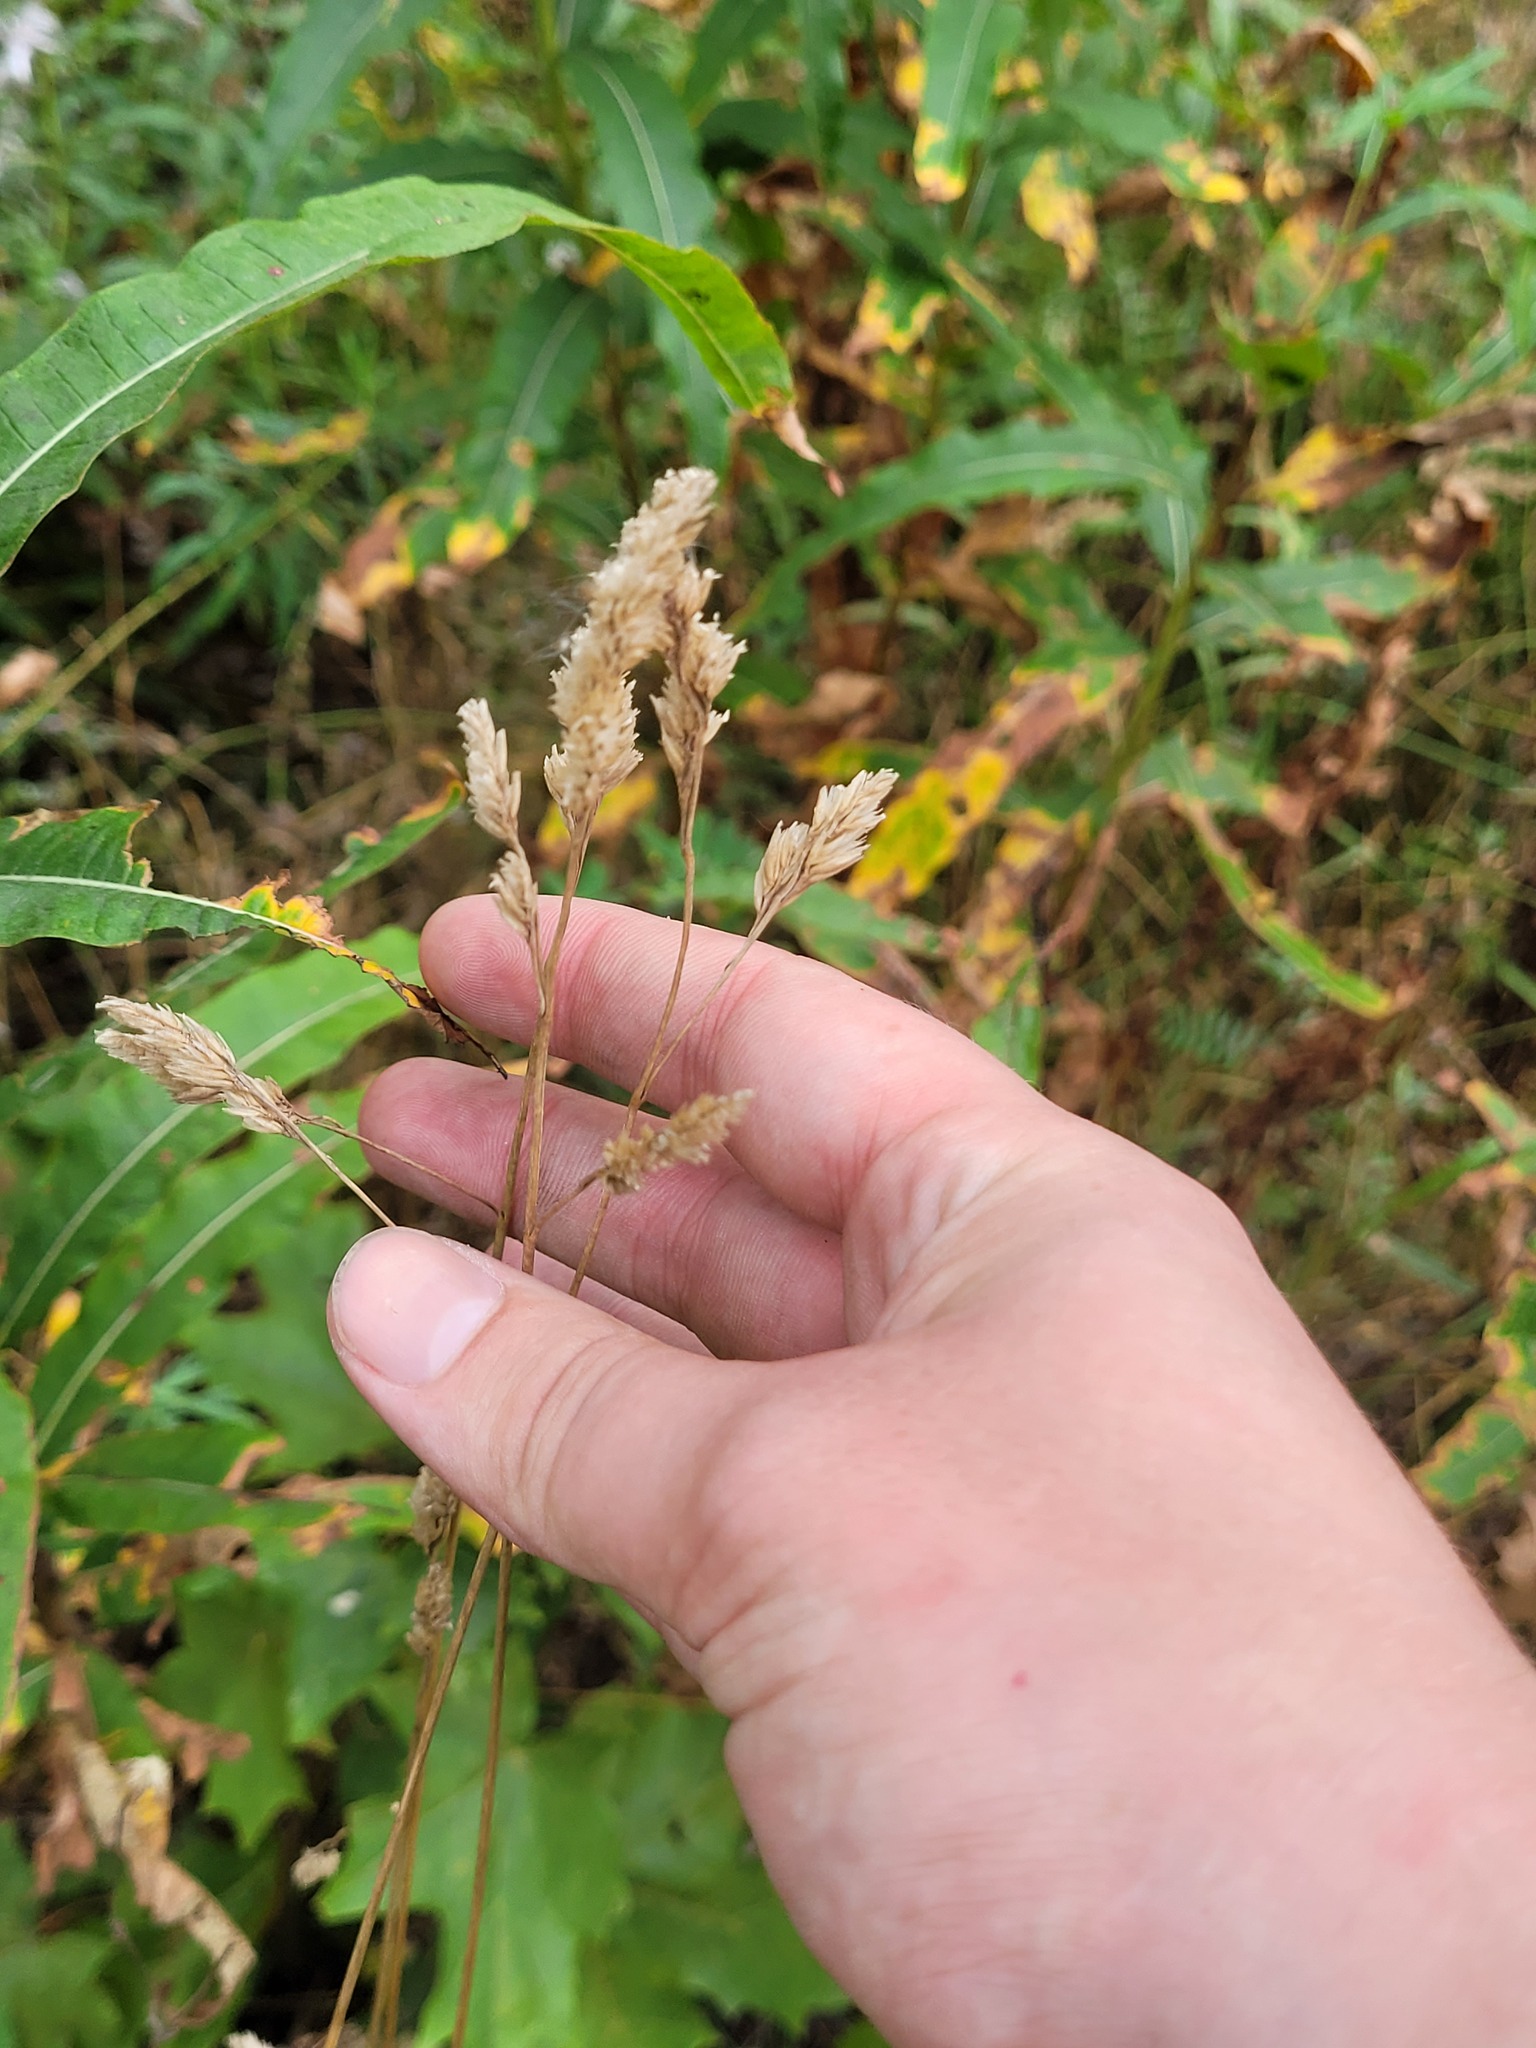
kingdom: Plantae
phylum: Tracheophyta
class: Liliopsida
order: Poales
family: Poaceae
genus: Dactylis
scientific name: Dactylis glomerata
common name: Orchardgrass
